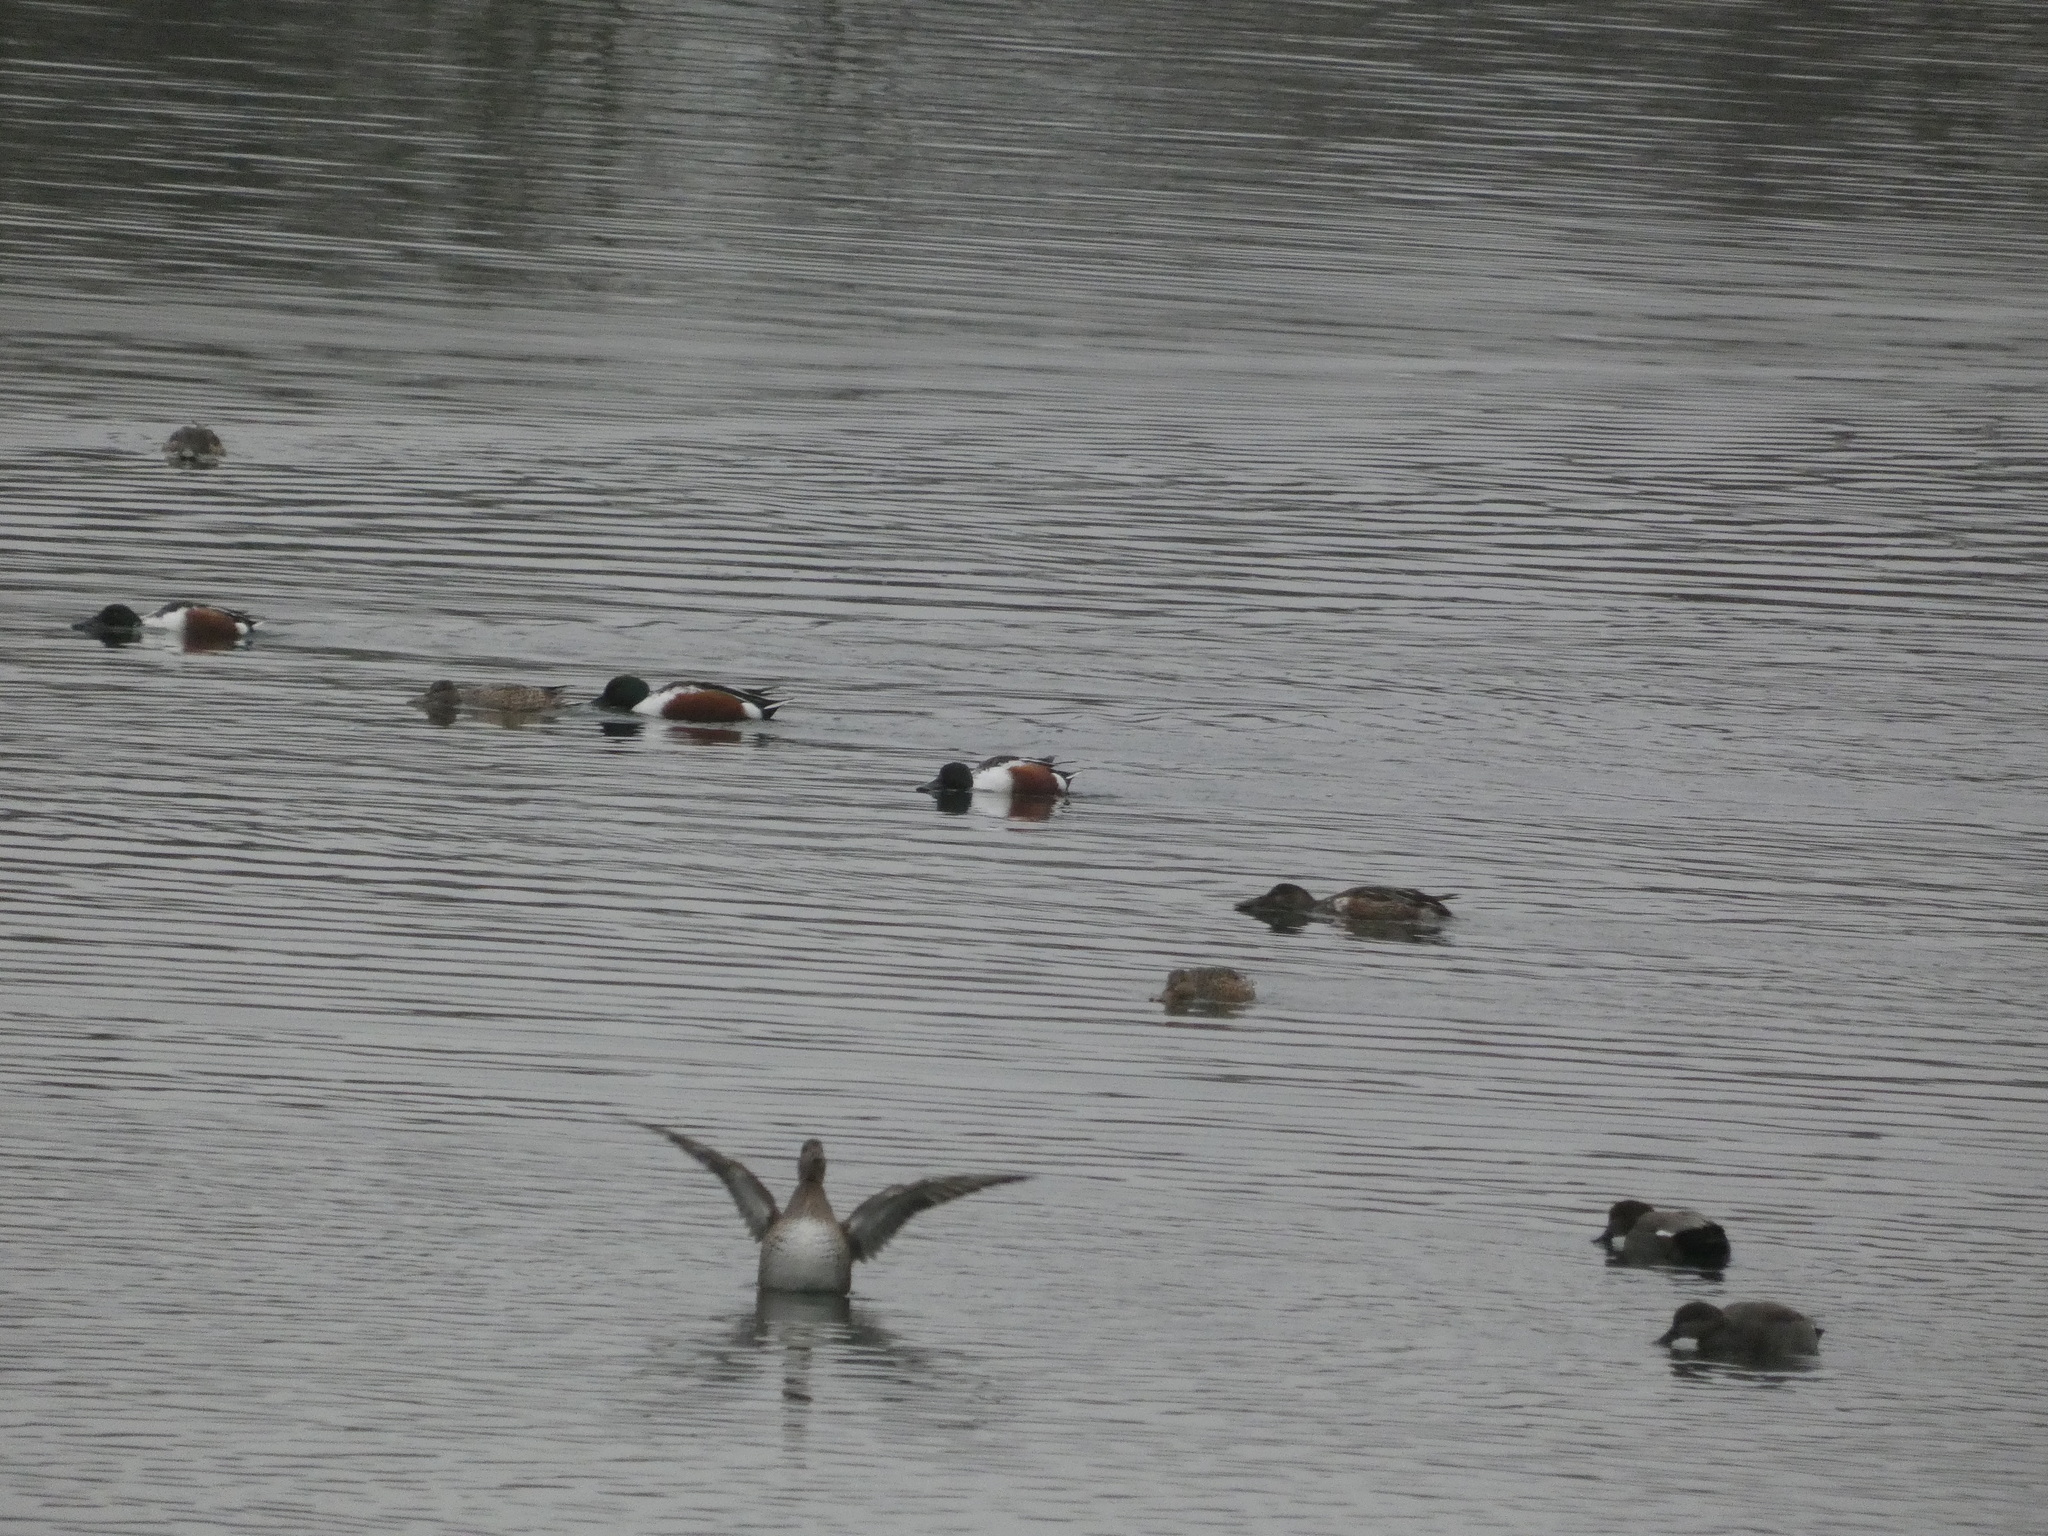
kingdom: Animalia
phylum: Chordata
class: Aves
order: Anseriformes
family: Anatidae
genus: Spatula
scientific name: Spatula clypeata
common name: Northern shoveler
